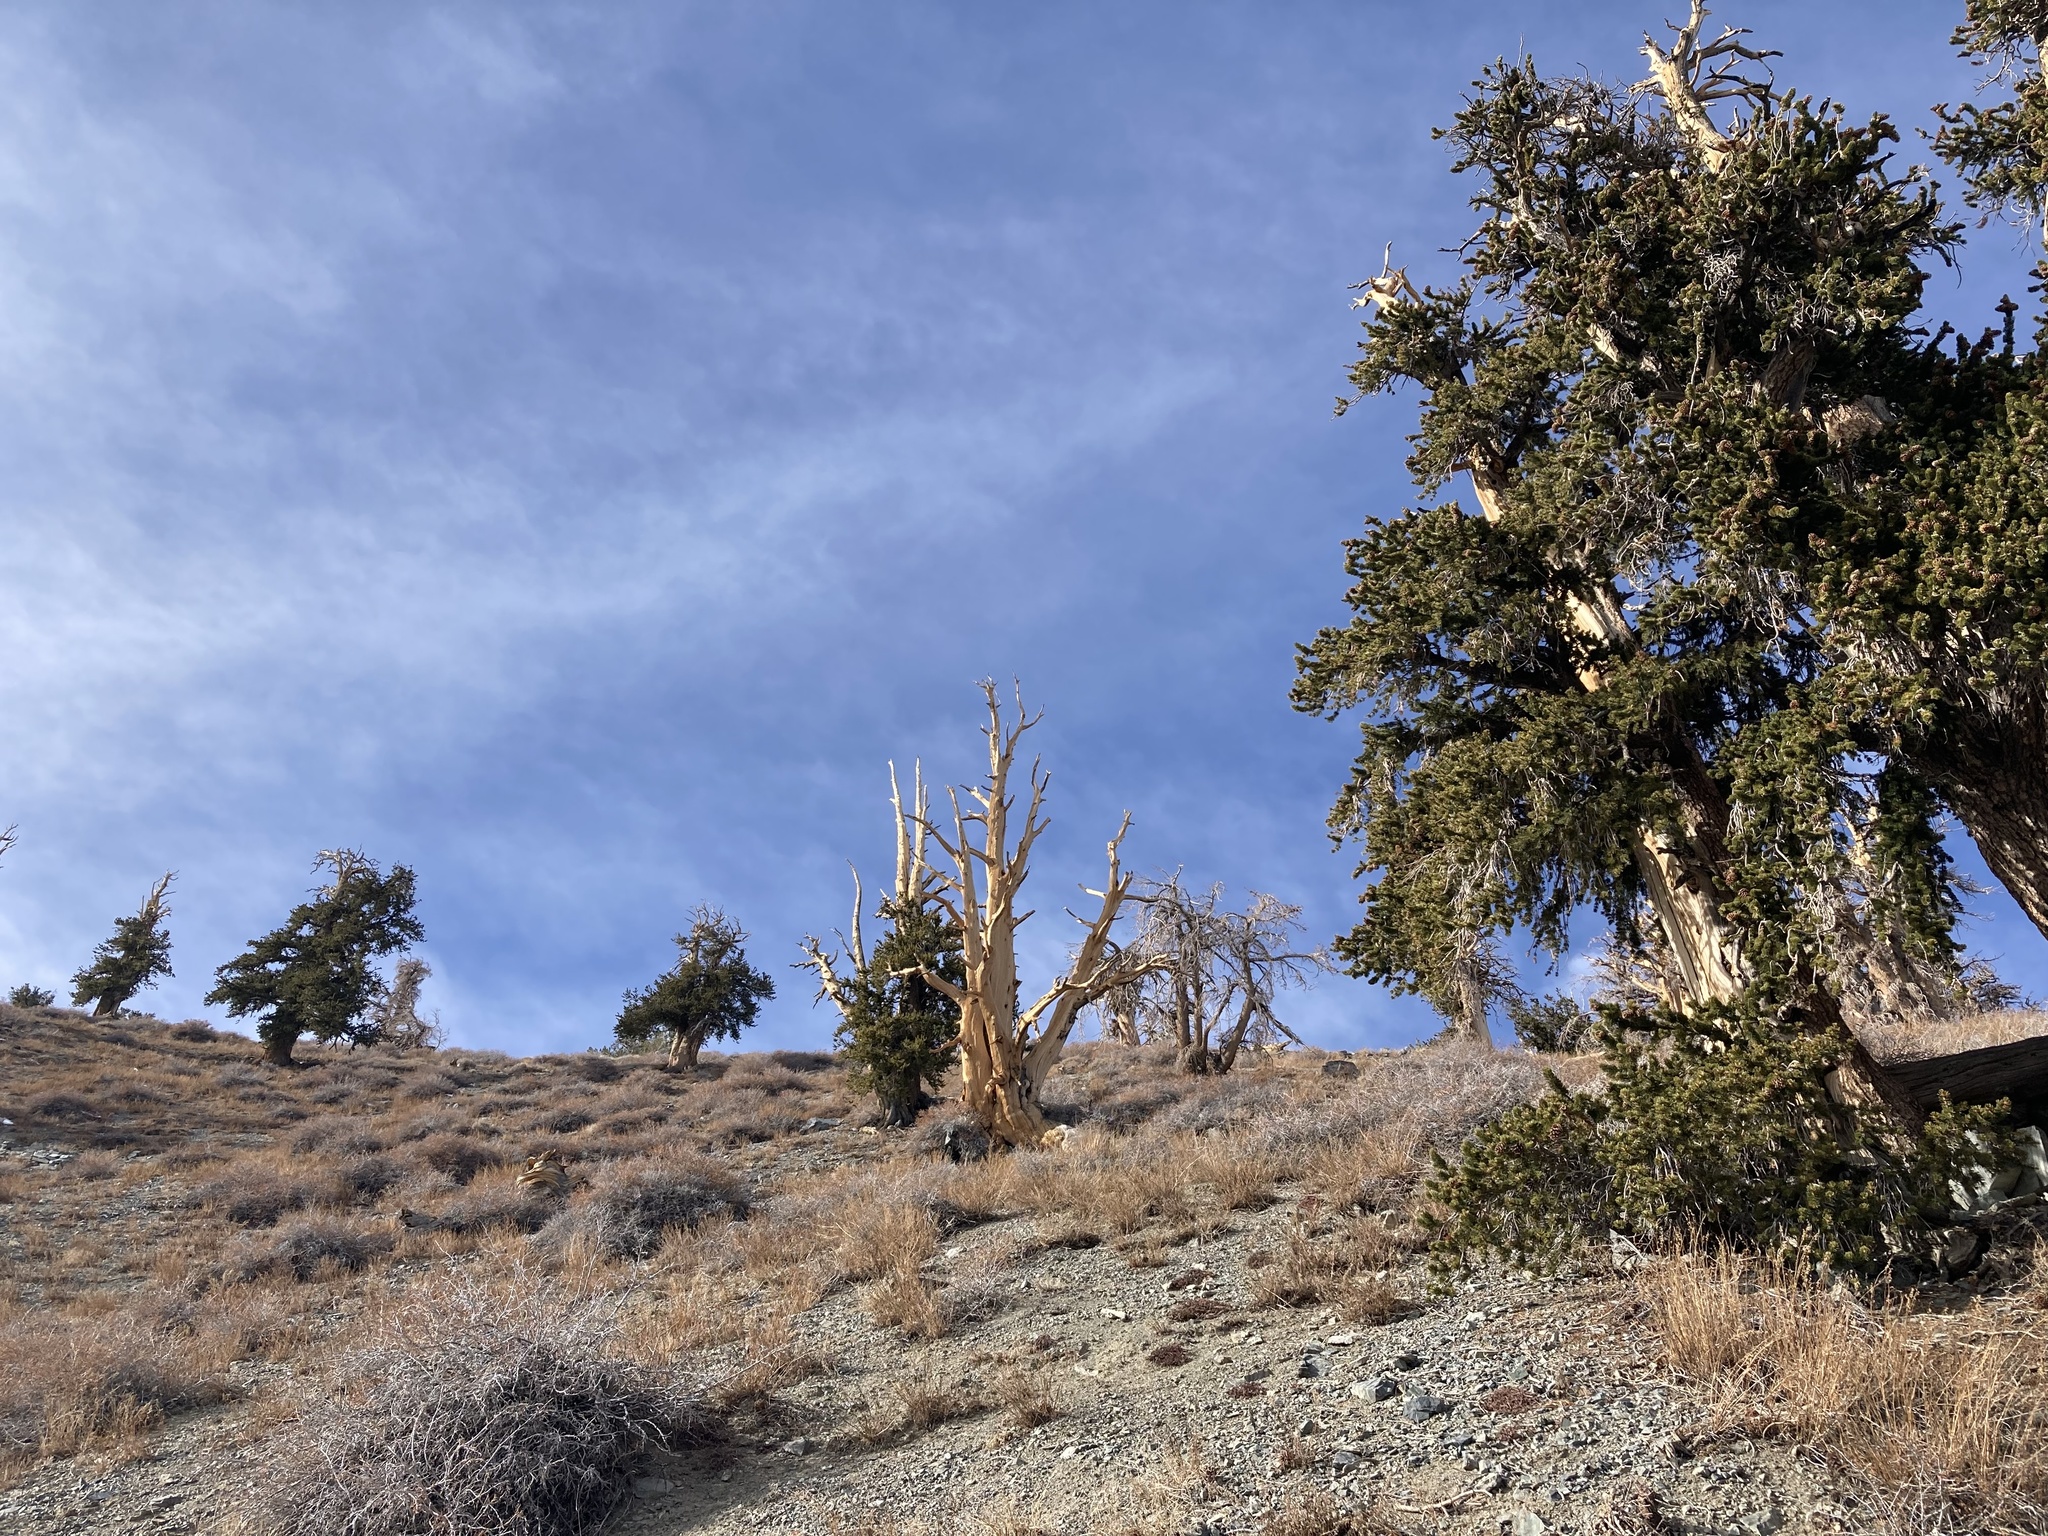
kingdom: Plantae
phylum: Tracheophyta
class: Pinopsida
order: Pinales
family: Pinaceae
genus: Pinus
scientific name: Pinus longaeva
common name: Intermountain bristlecone pine
